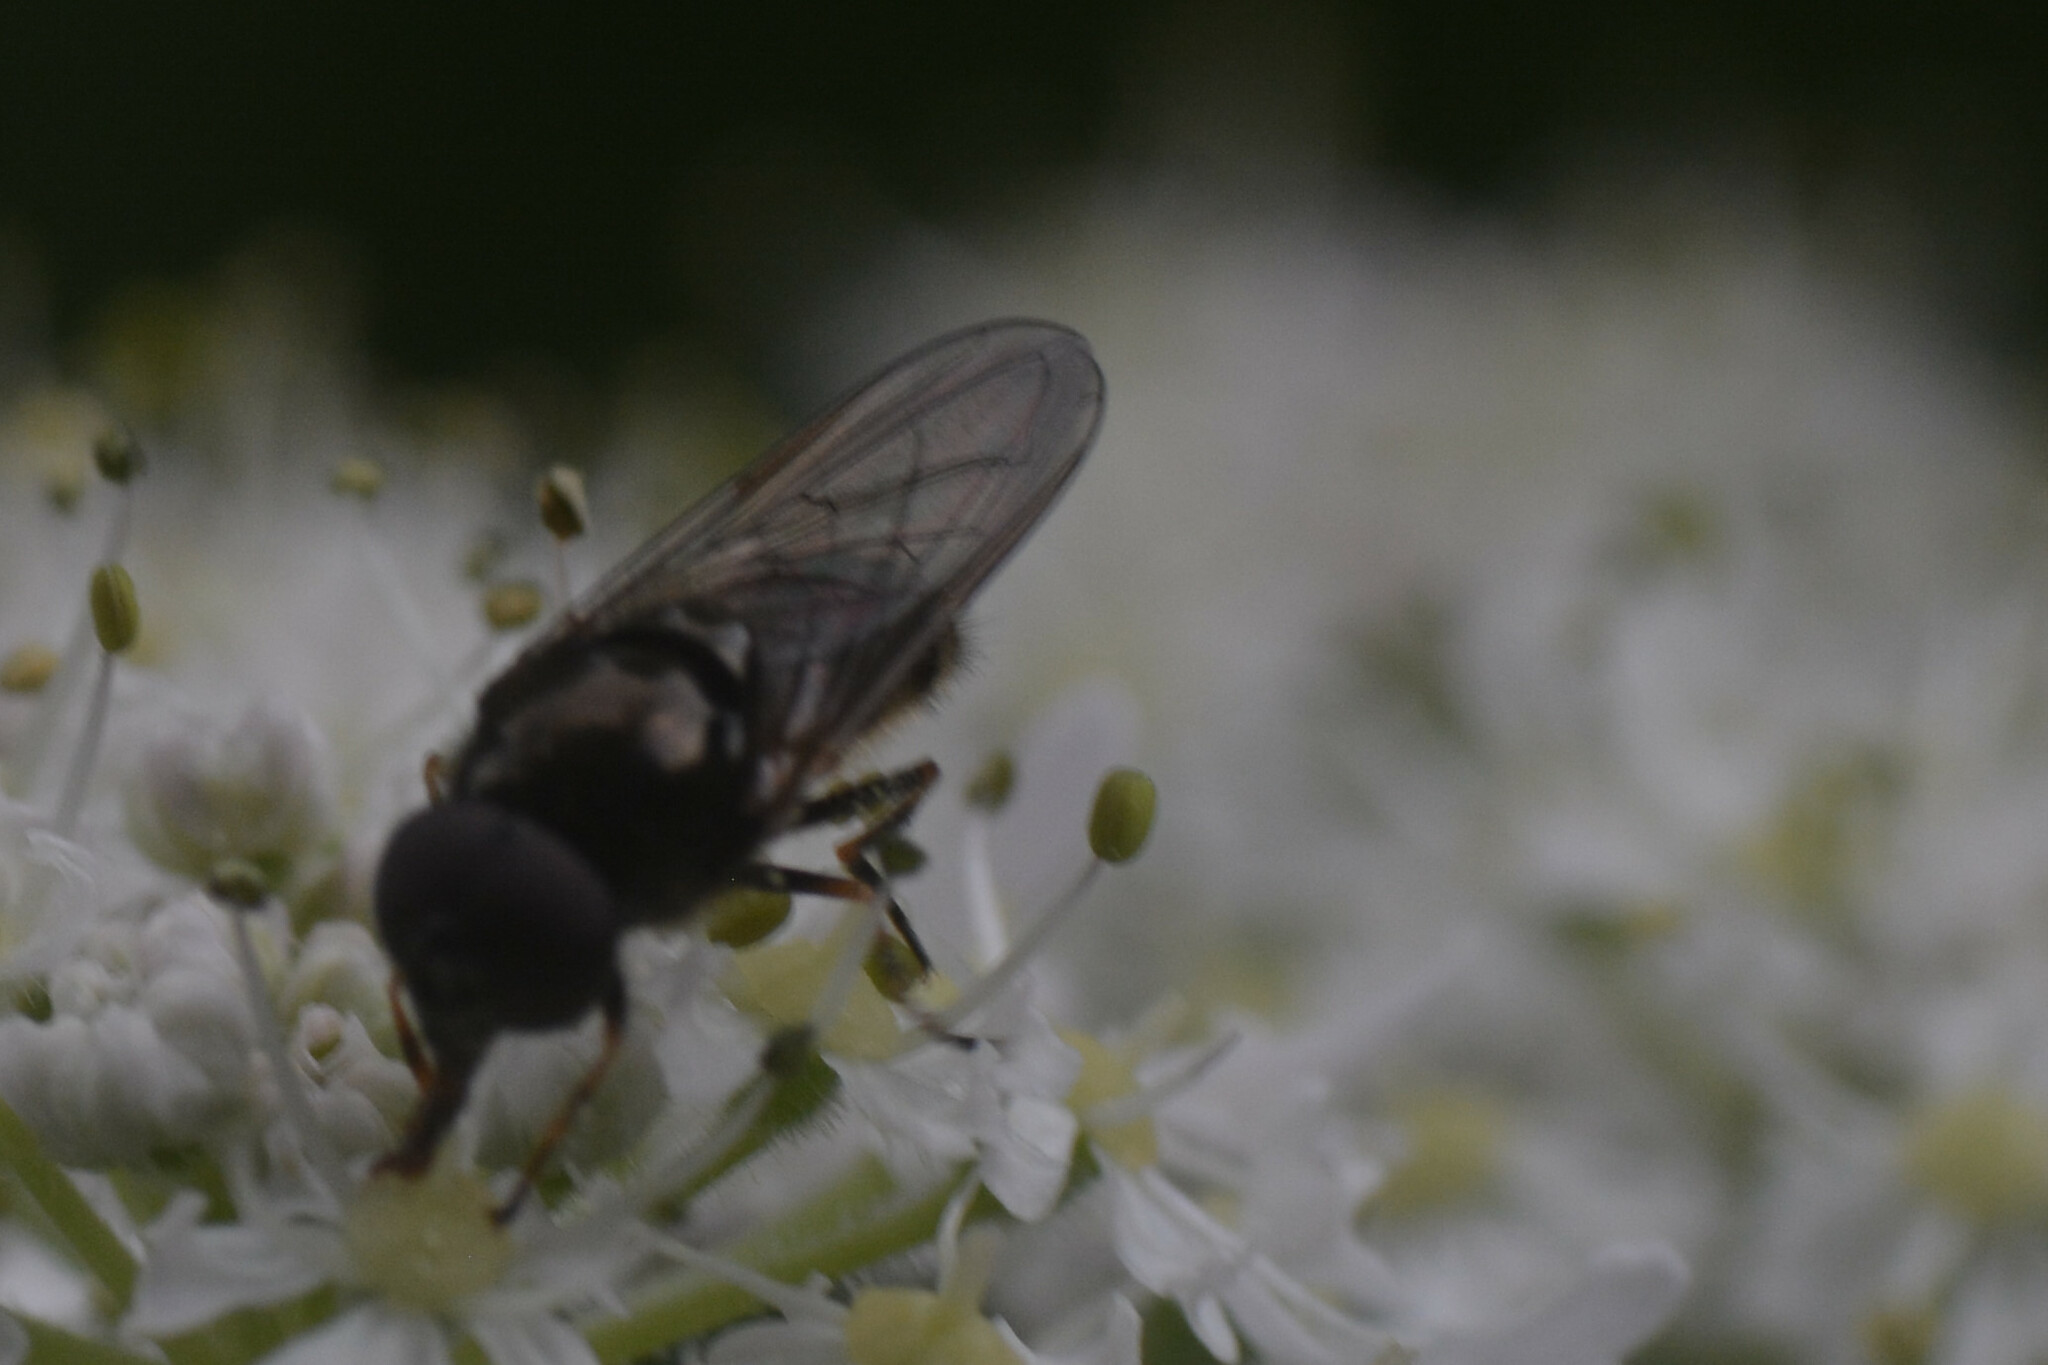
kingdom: Animalia
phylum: Arthropoda
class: Insecta
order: Diptera
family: Syrphidae
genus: Cheilosia
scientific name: Cheilosia scutellata
